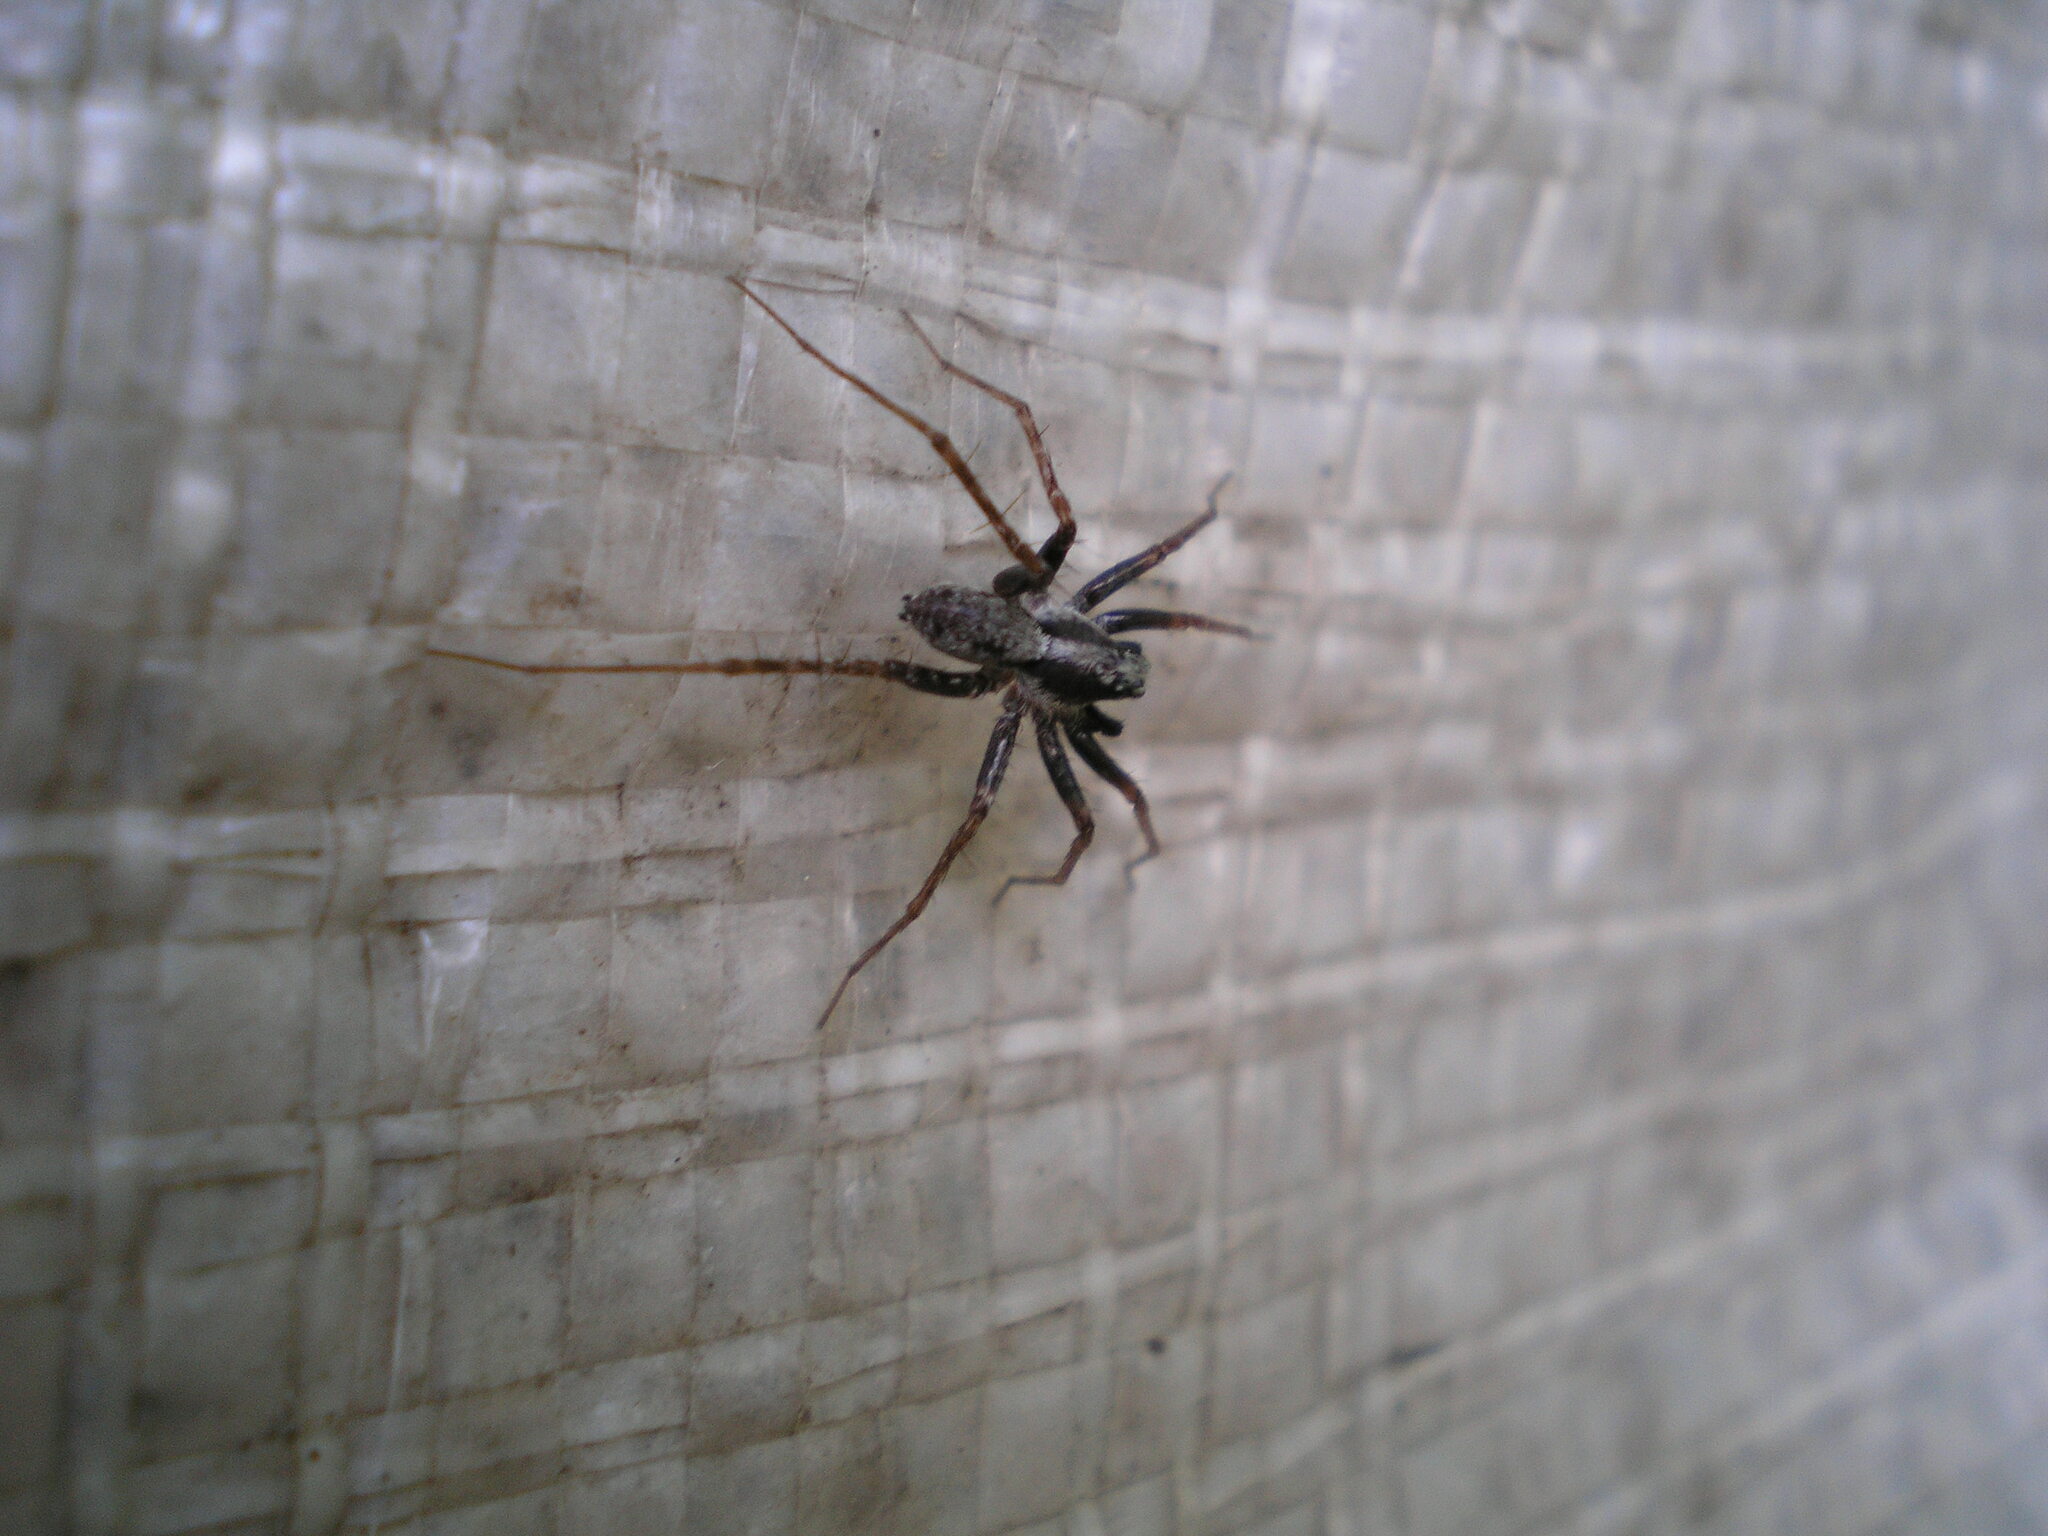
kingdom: Animalia
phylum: Arthropoda
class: Arachnida
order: Araneae
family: Lycosidae
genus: Pardosa
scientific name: Pardosa
